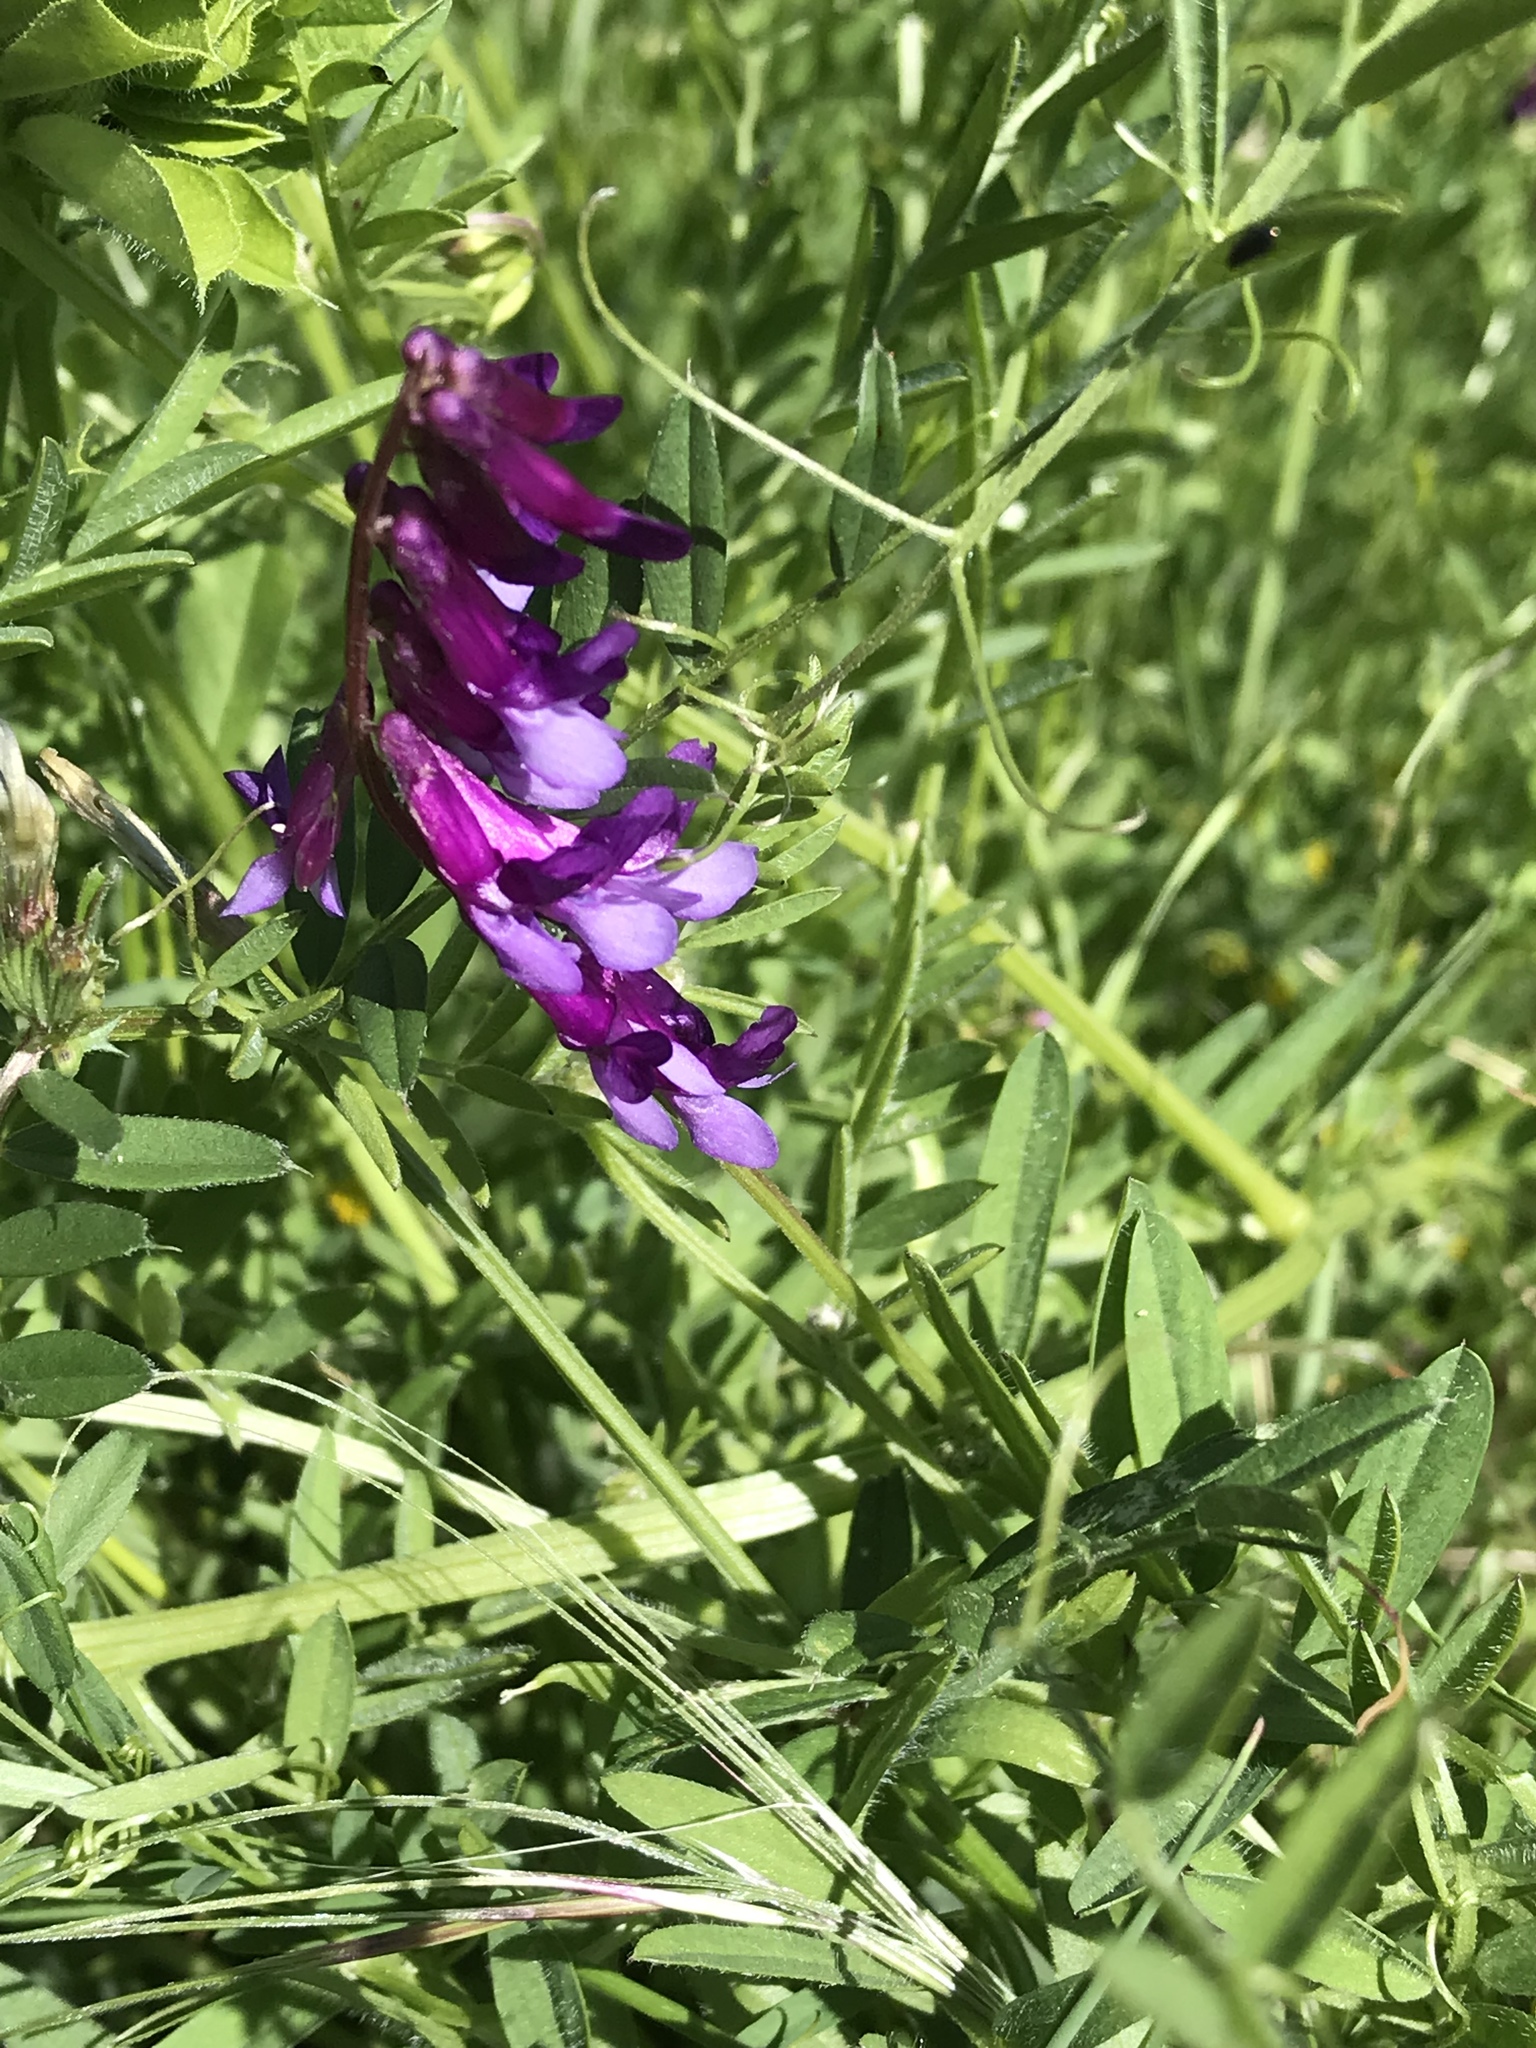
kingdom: Plantae
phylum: Tracheophyta
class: Magnoliopsida
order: Fabales
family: Fabaceae
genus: Vicia
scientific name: Vicia villosa
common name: Fodder vetch
